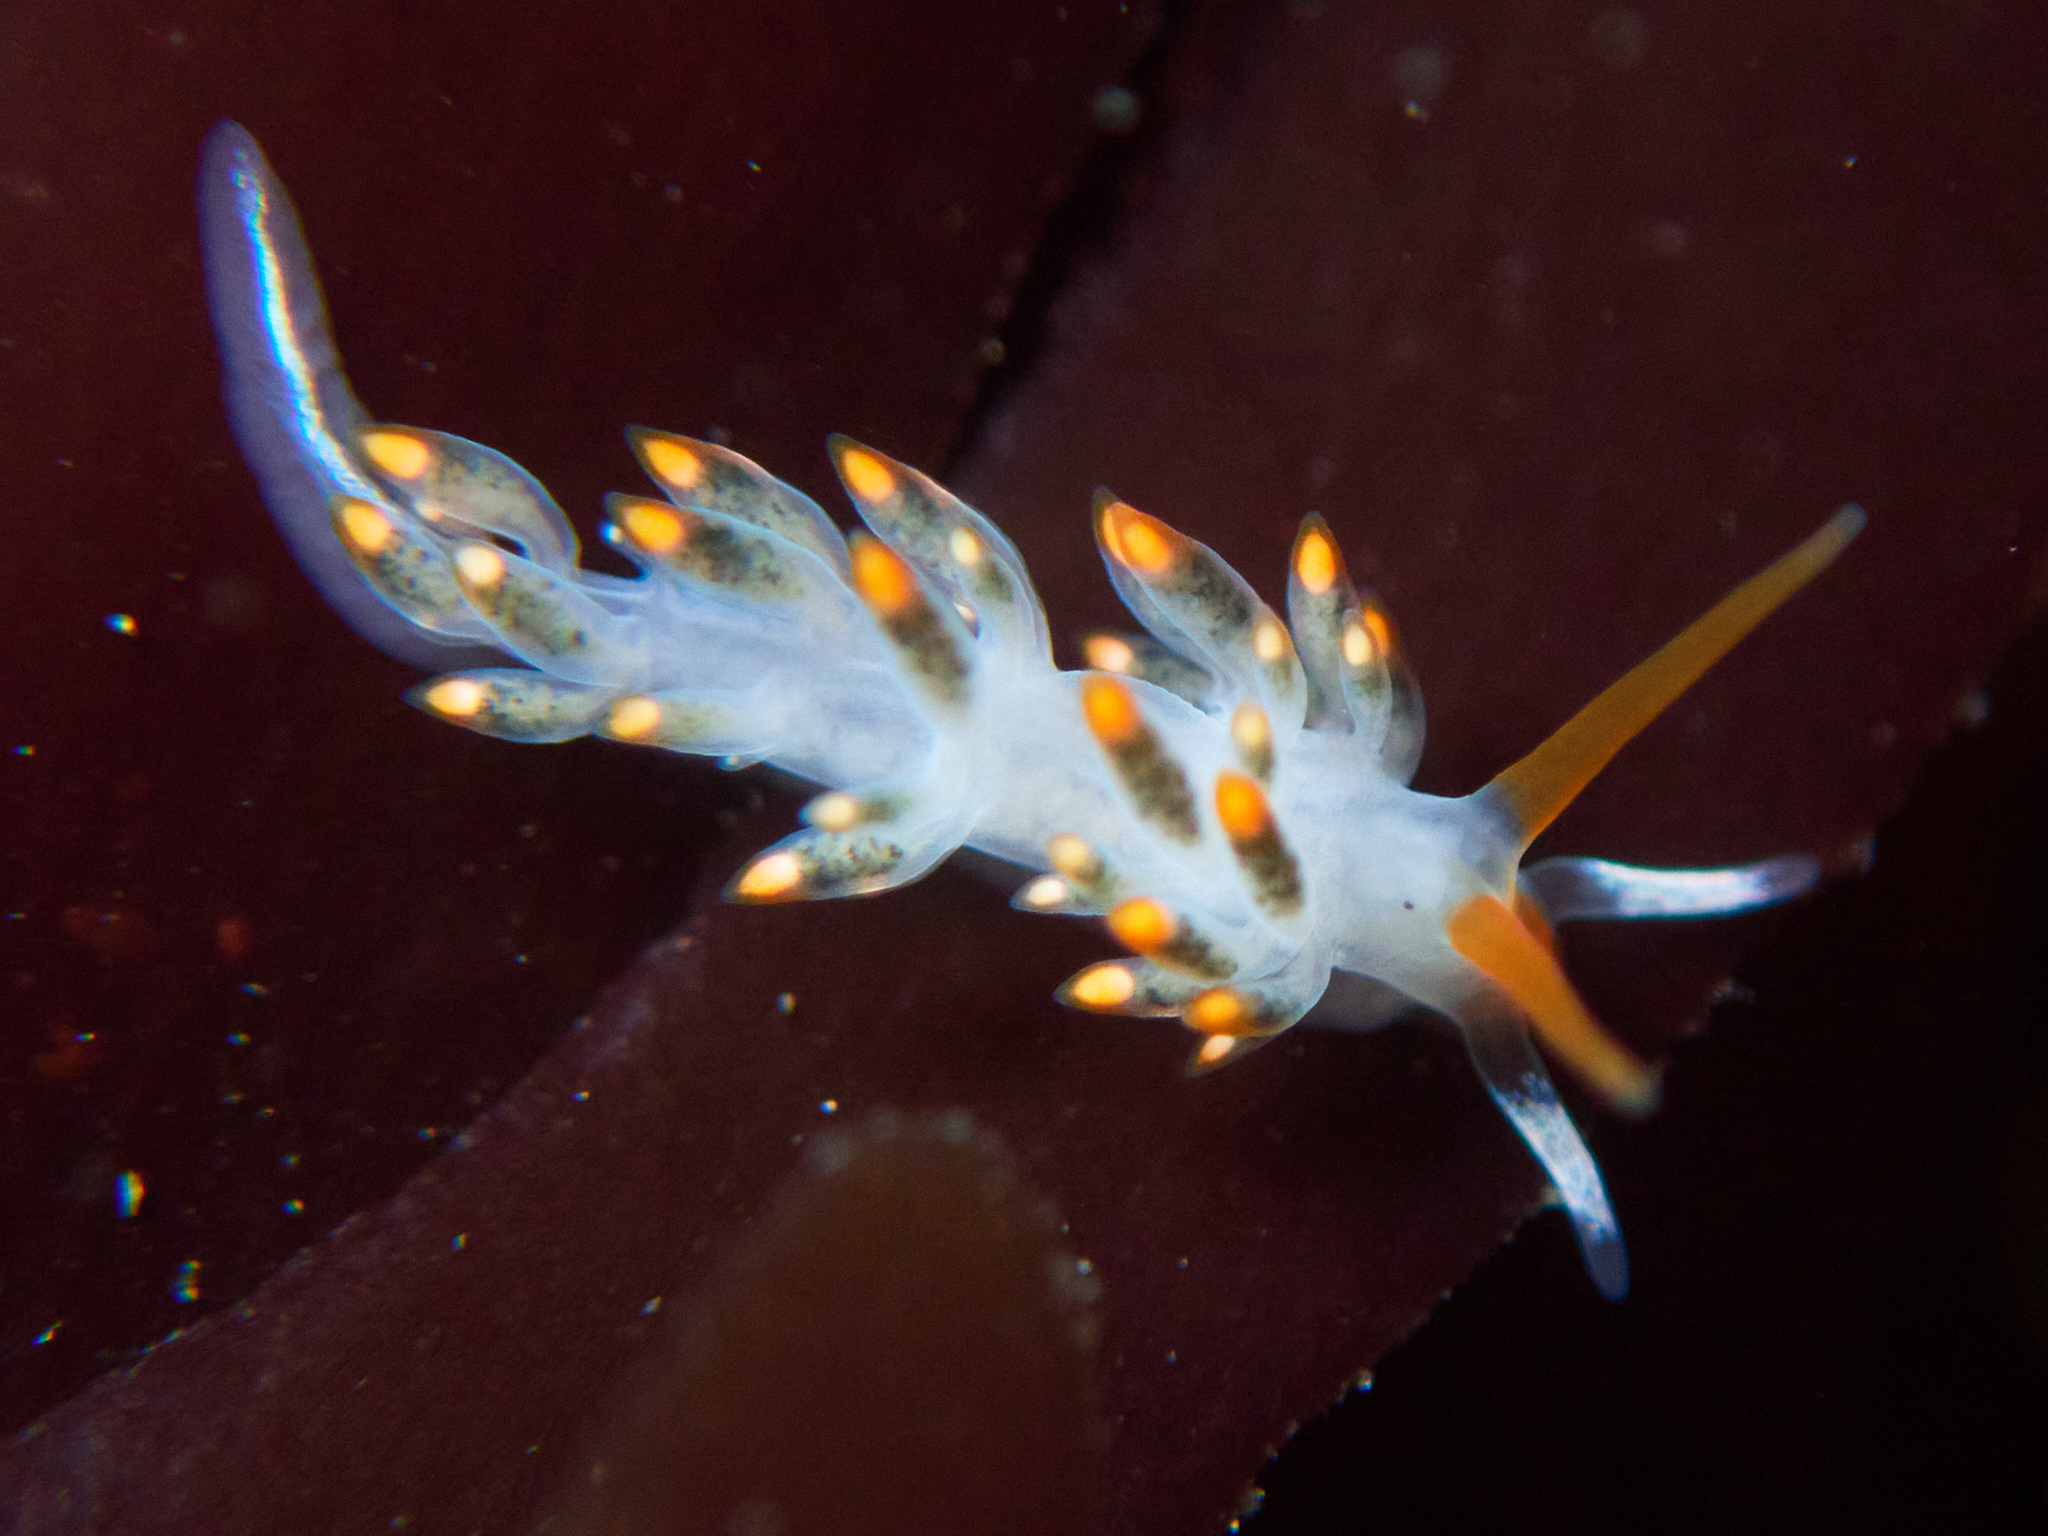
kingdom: Animalia
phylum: Mollusca
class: Gastropoda
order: Nudibranchia
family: Trinchesiidae
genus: Diaphoreolis
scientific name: Diaphoreolis lagunae
